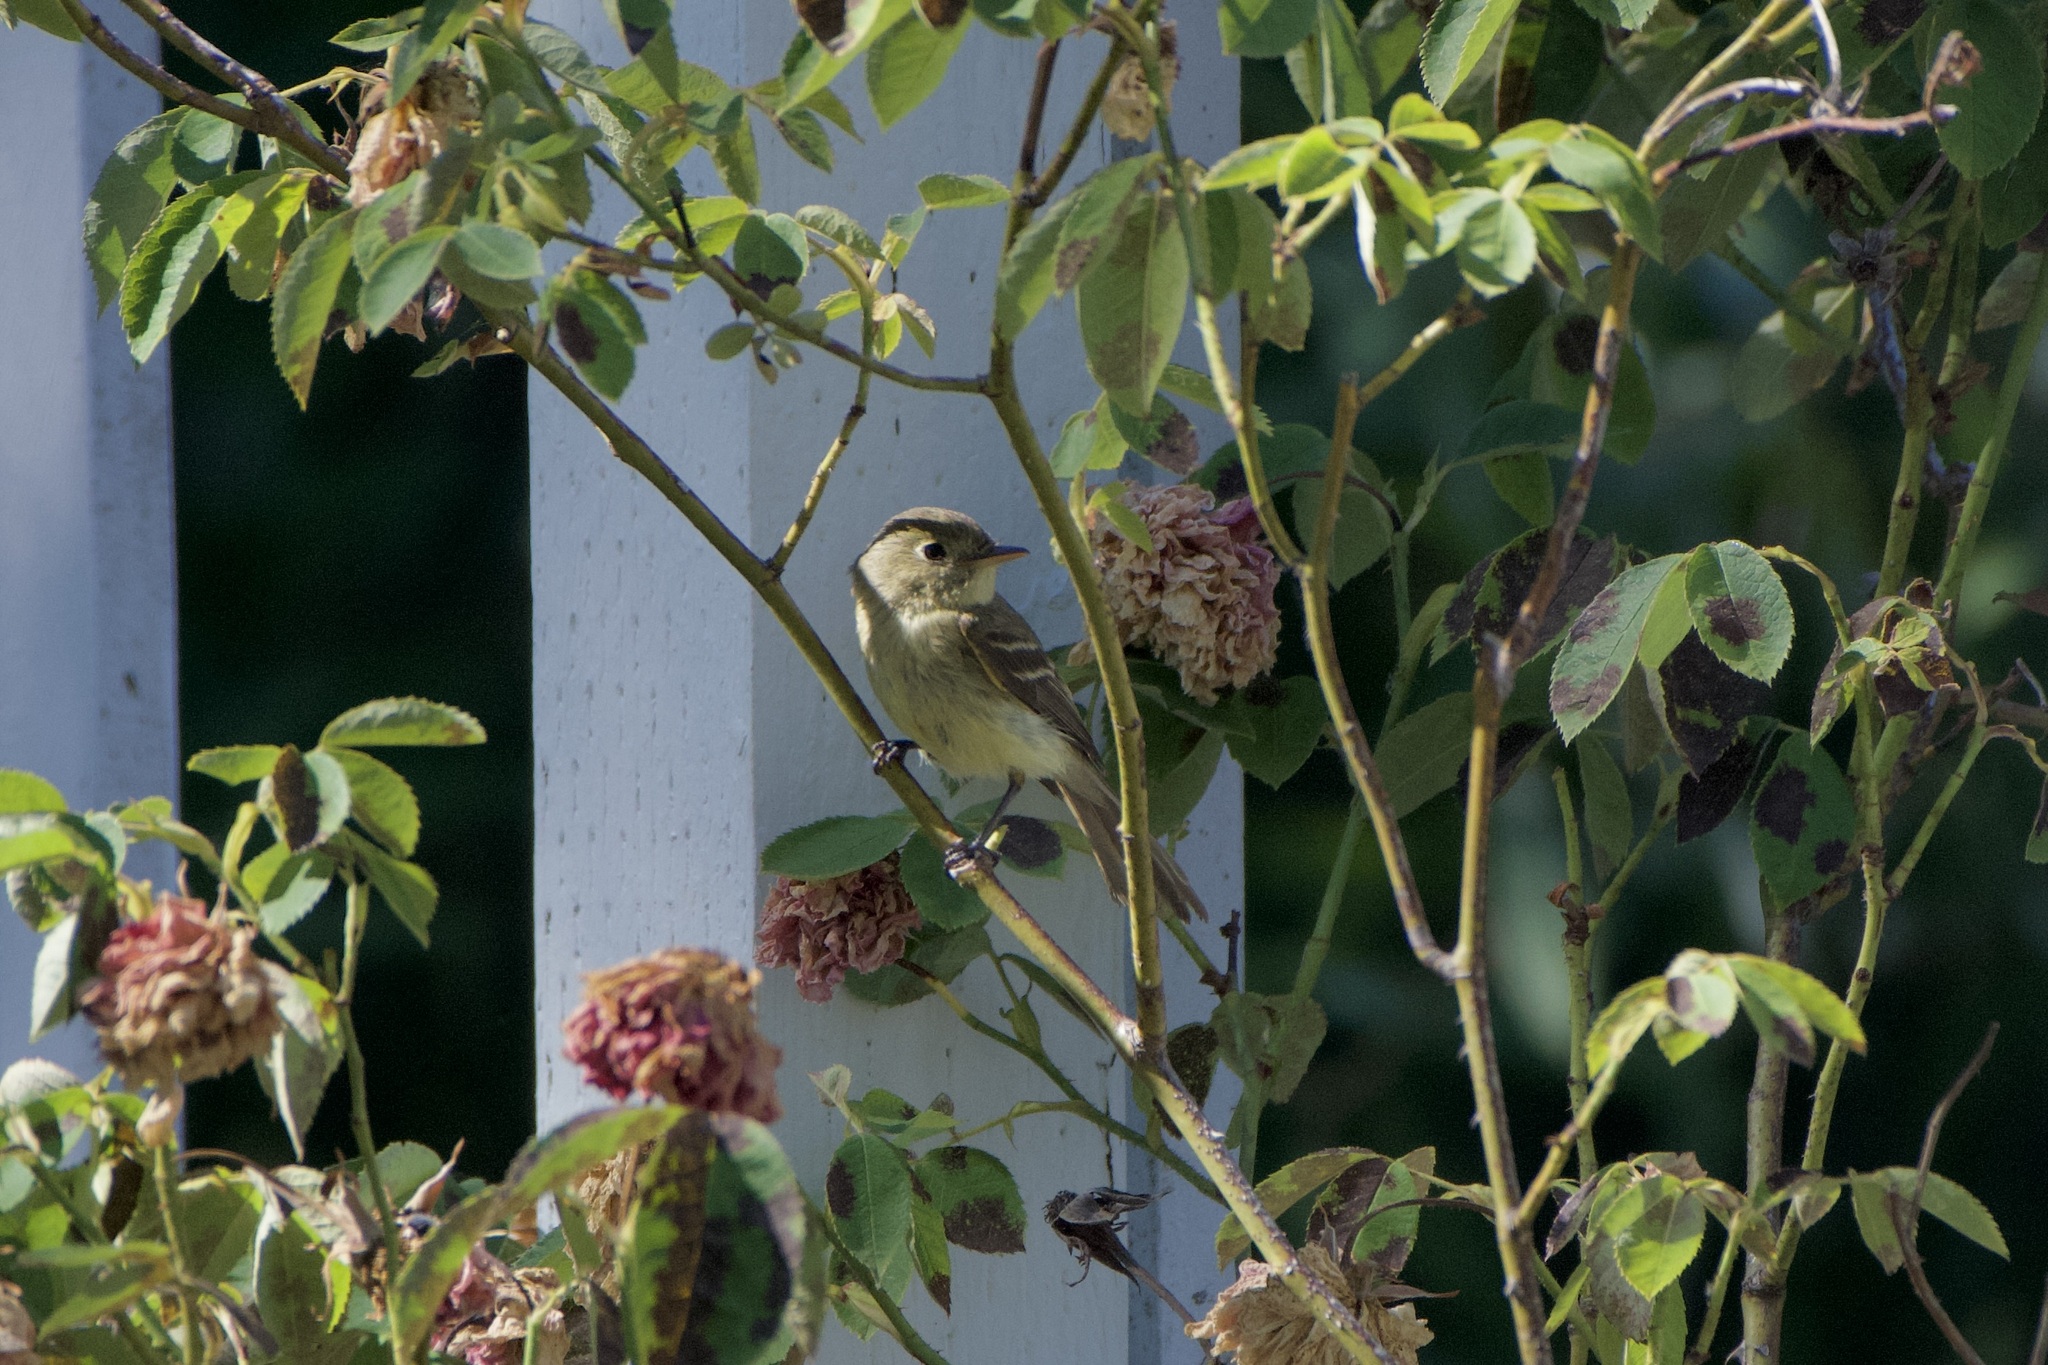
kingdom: Animalia
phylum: Chordata
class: Aves
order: Passeriformes
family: Tyrannidae
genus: Empidonax
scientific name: Empidonax difficilis
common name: Pacific-slope flycatcher
